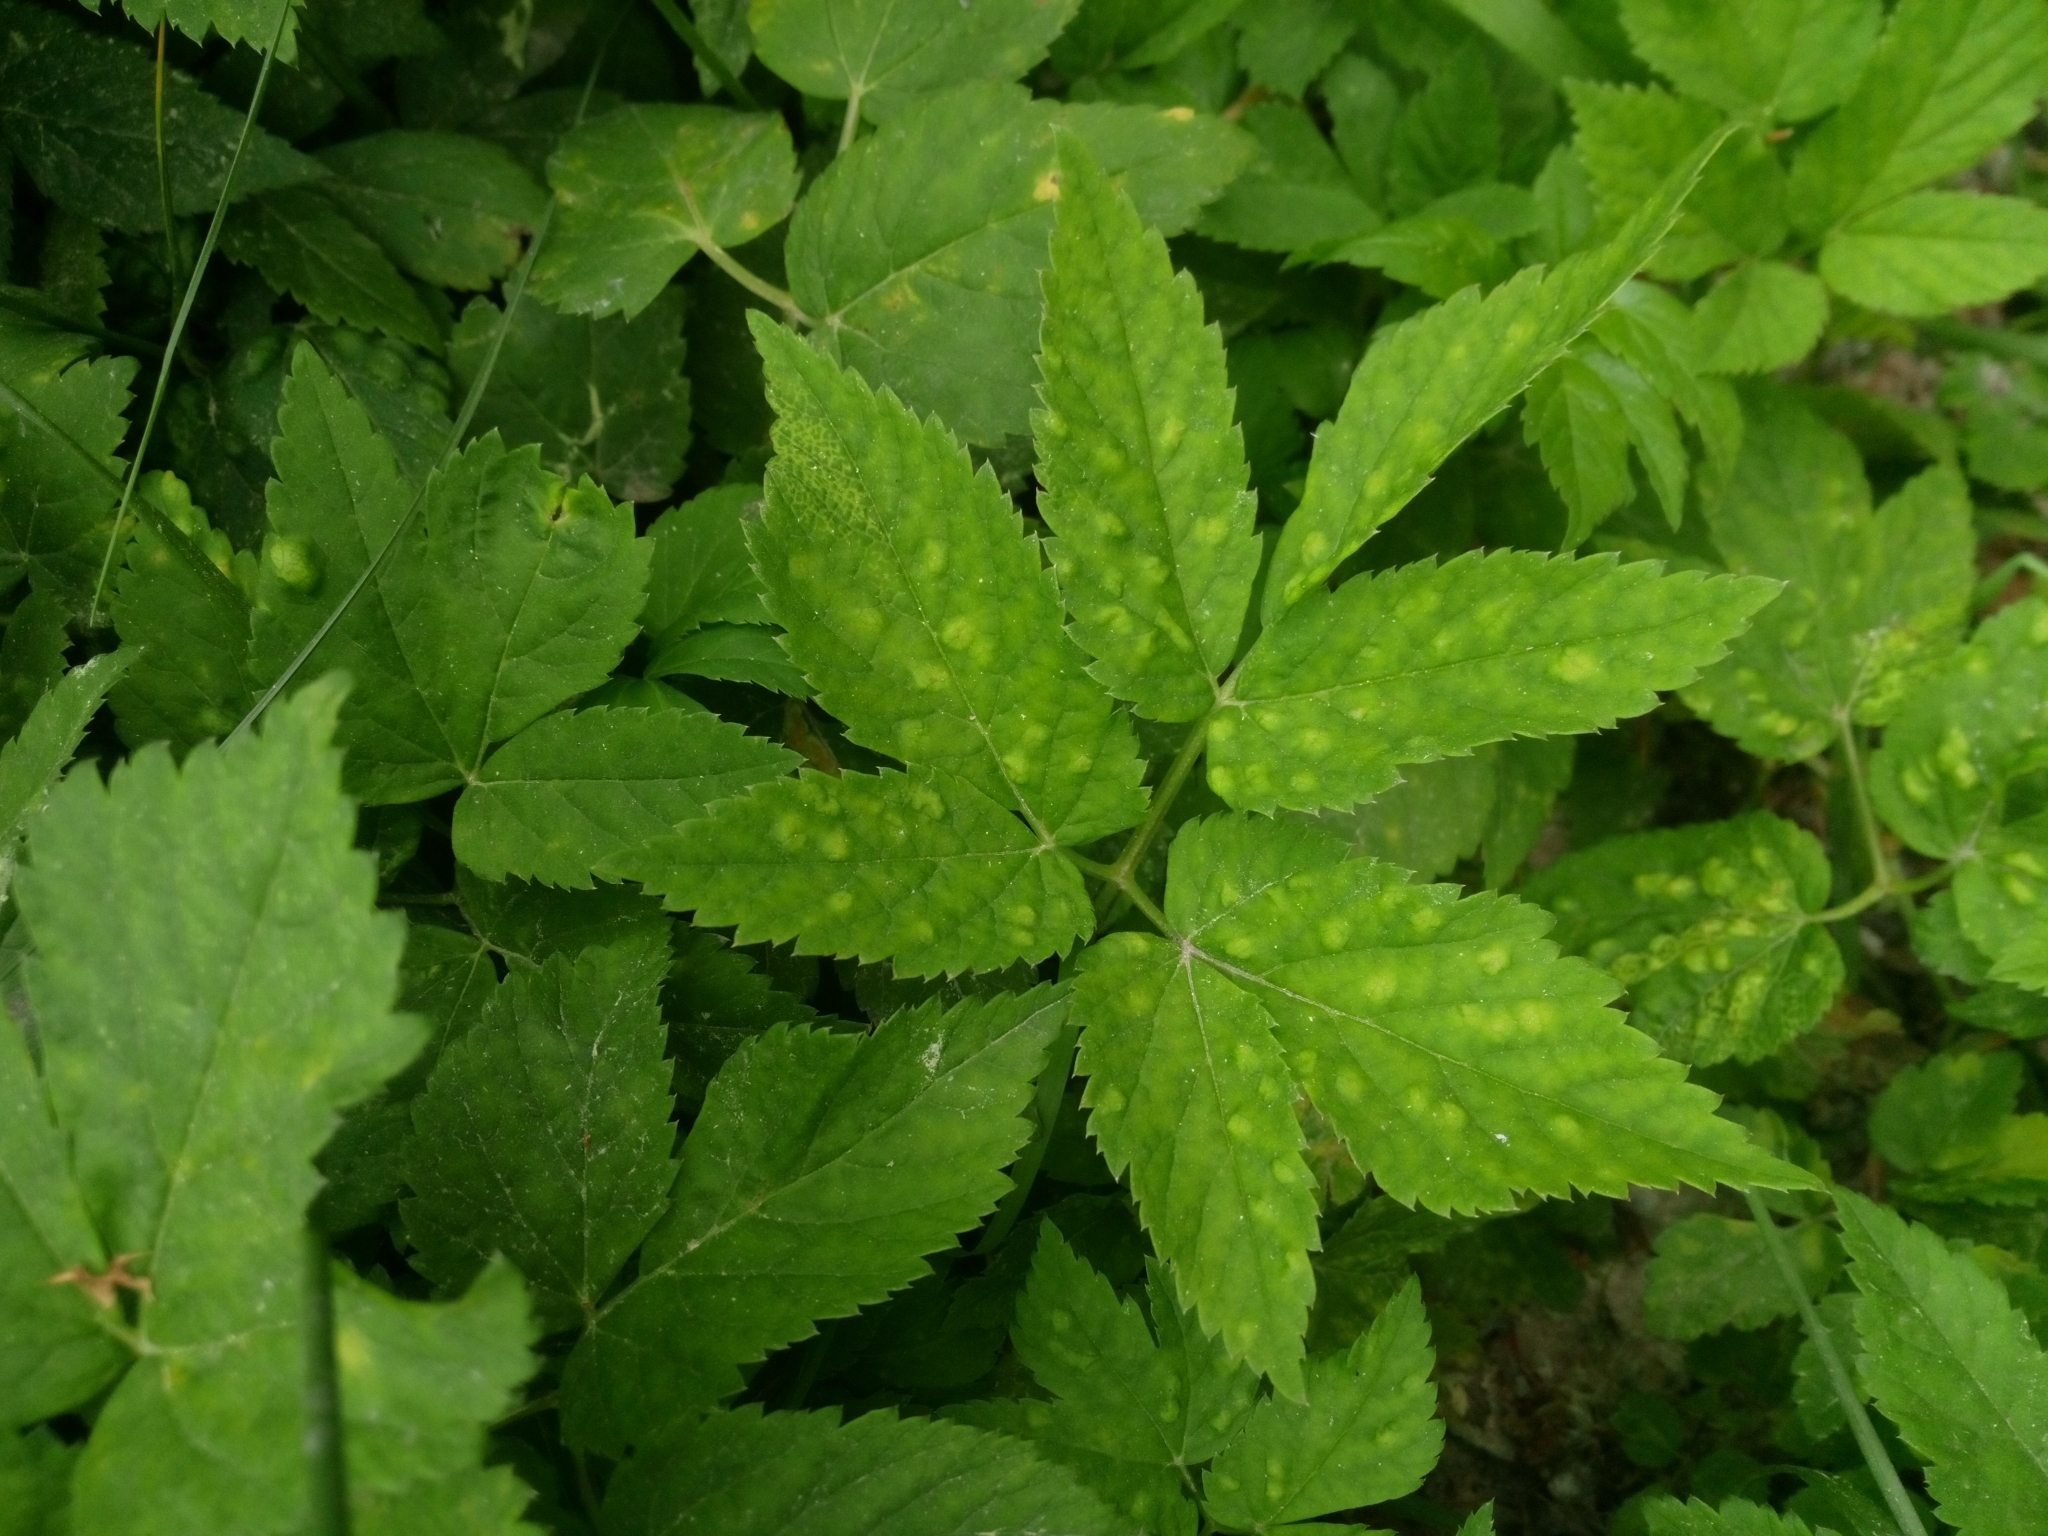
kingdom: Plantae
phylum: Tracheophyta
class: Magnoliopsida
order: Apiales
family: Apiaceae
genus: Aegopodium
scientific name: Aegopodium podagraria
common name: Ground-elder
